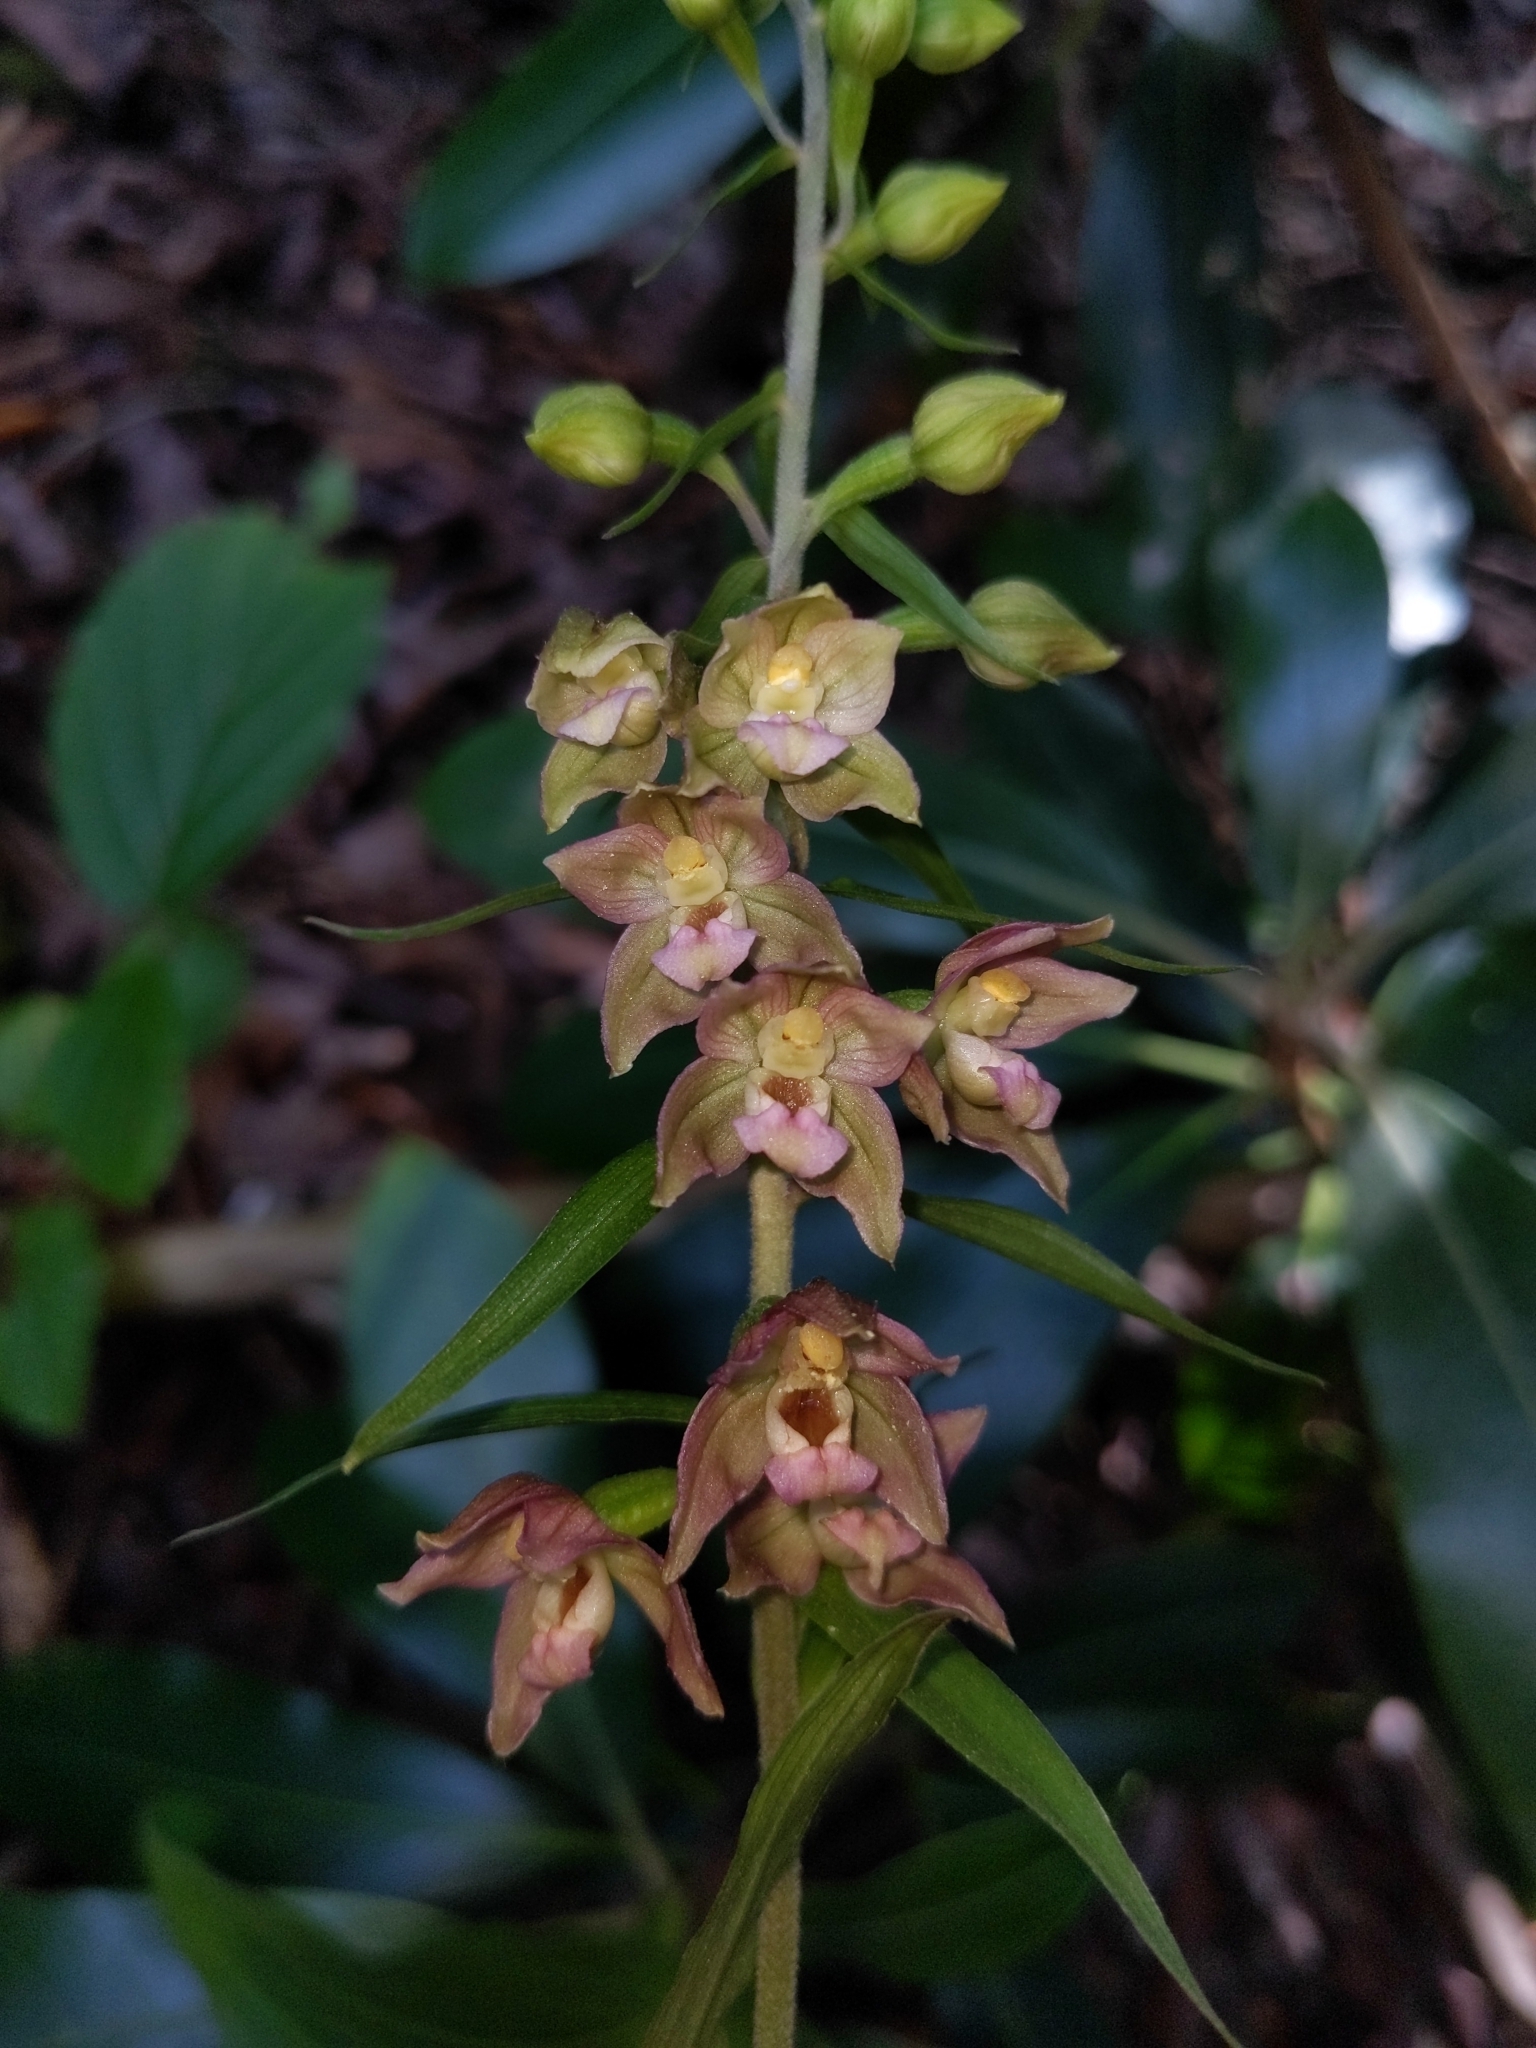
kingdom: Plantae
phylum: Tracheophyta
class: Liliopsida
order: Asparagales
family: Orchidaceae
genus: Epipactis
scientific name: Epipactis helleborine
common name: Broad-leaved helleborine
